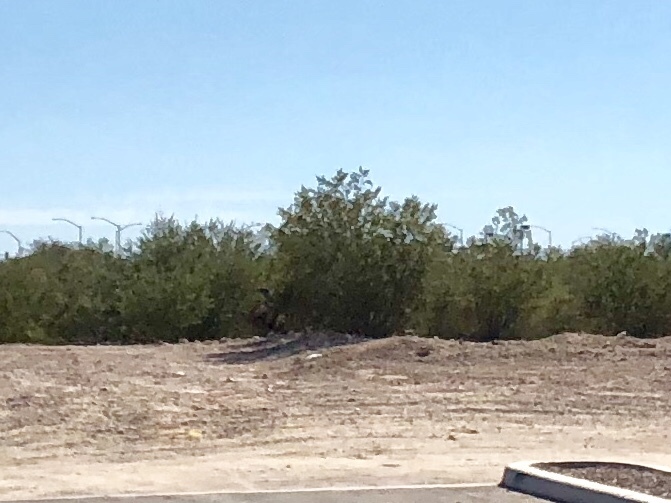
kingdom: Plantae
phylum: Tracheophyta
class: Magnoliopsida
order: Zygophyllales
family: Zygophyllaceae
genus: Larrea
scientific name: Larrea tridentata
